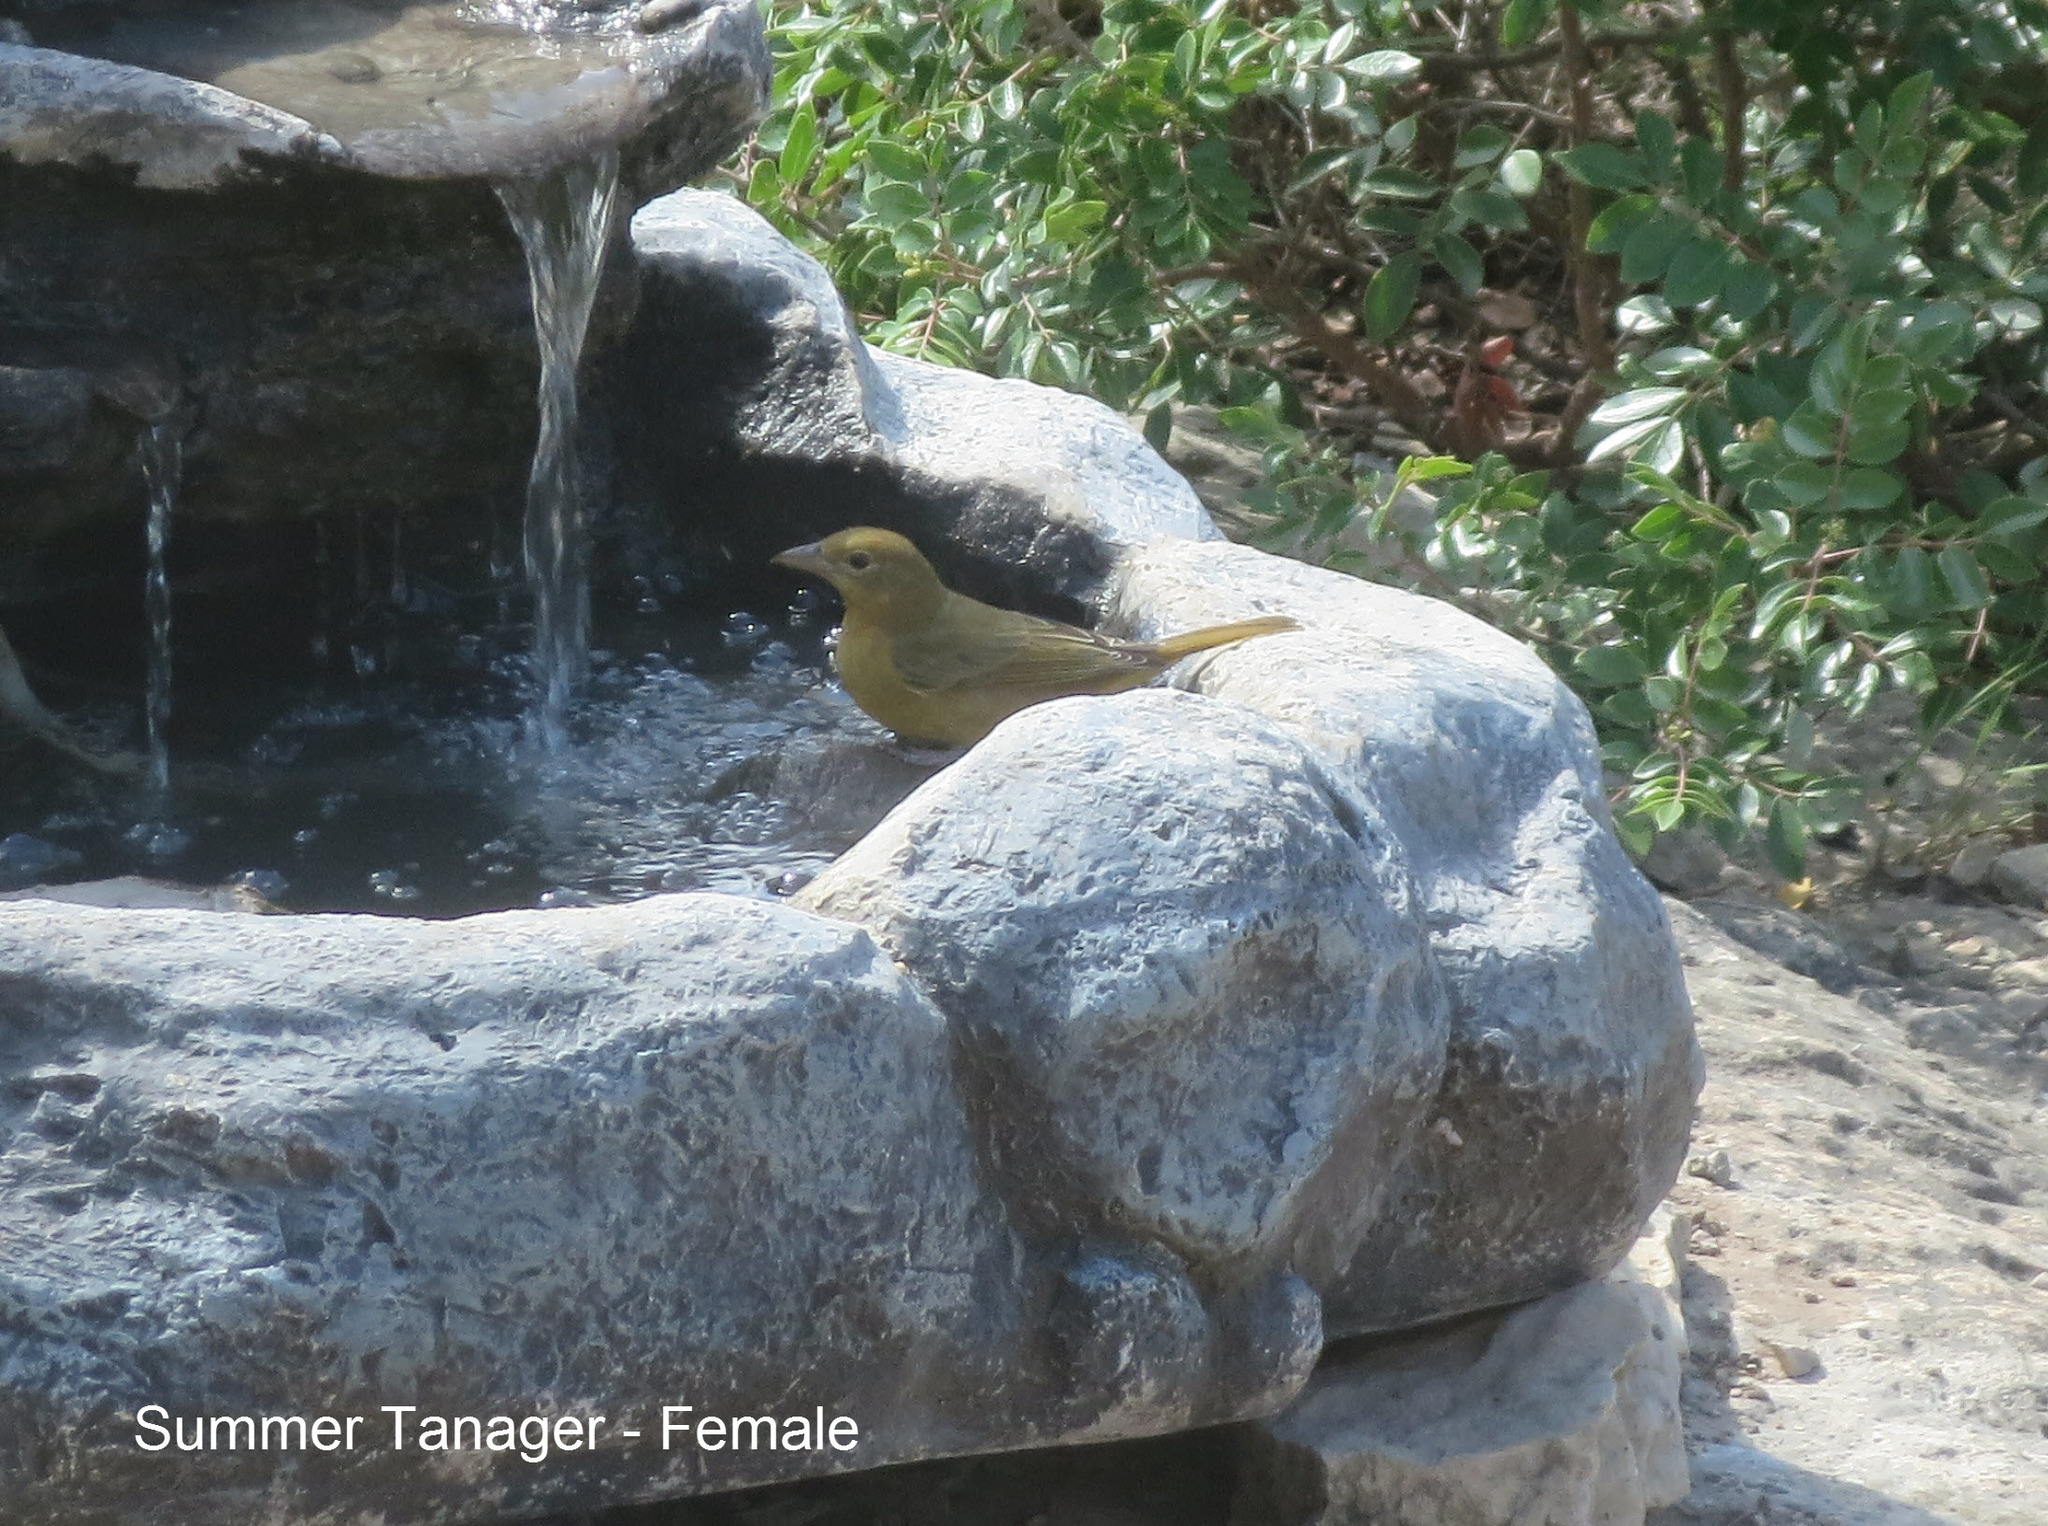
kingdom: Animalia
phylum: Chordata
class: Aves
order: Passeriformes
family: Cardinalidae
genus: Piranga
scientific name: Piranga rubra
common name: Summer tanager
